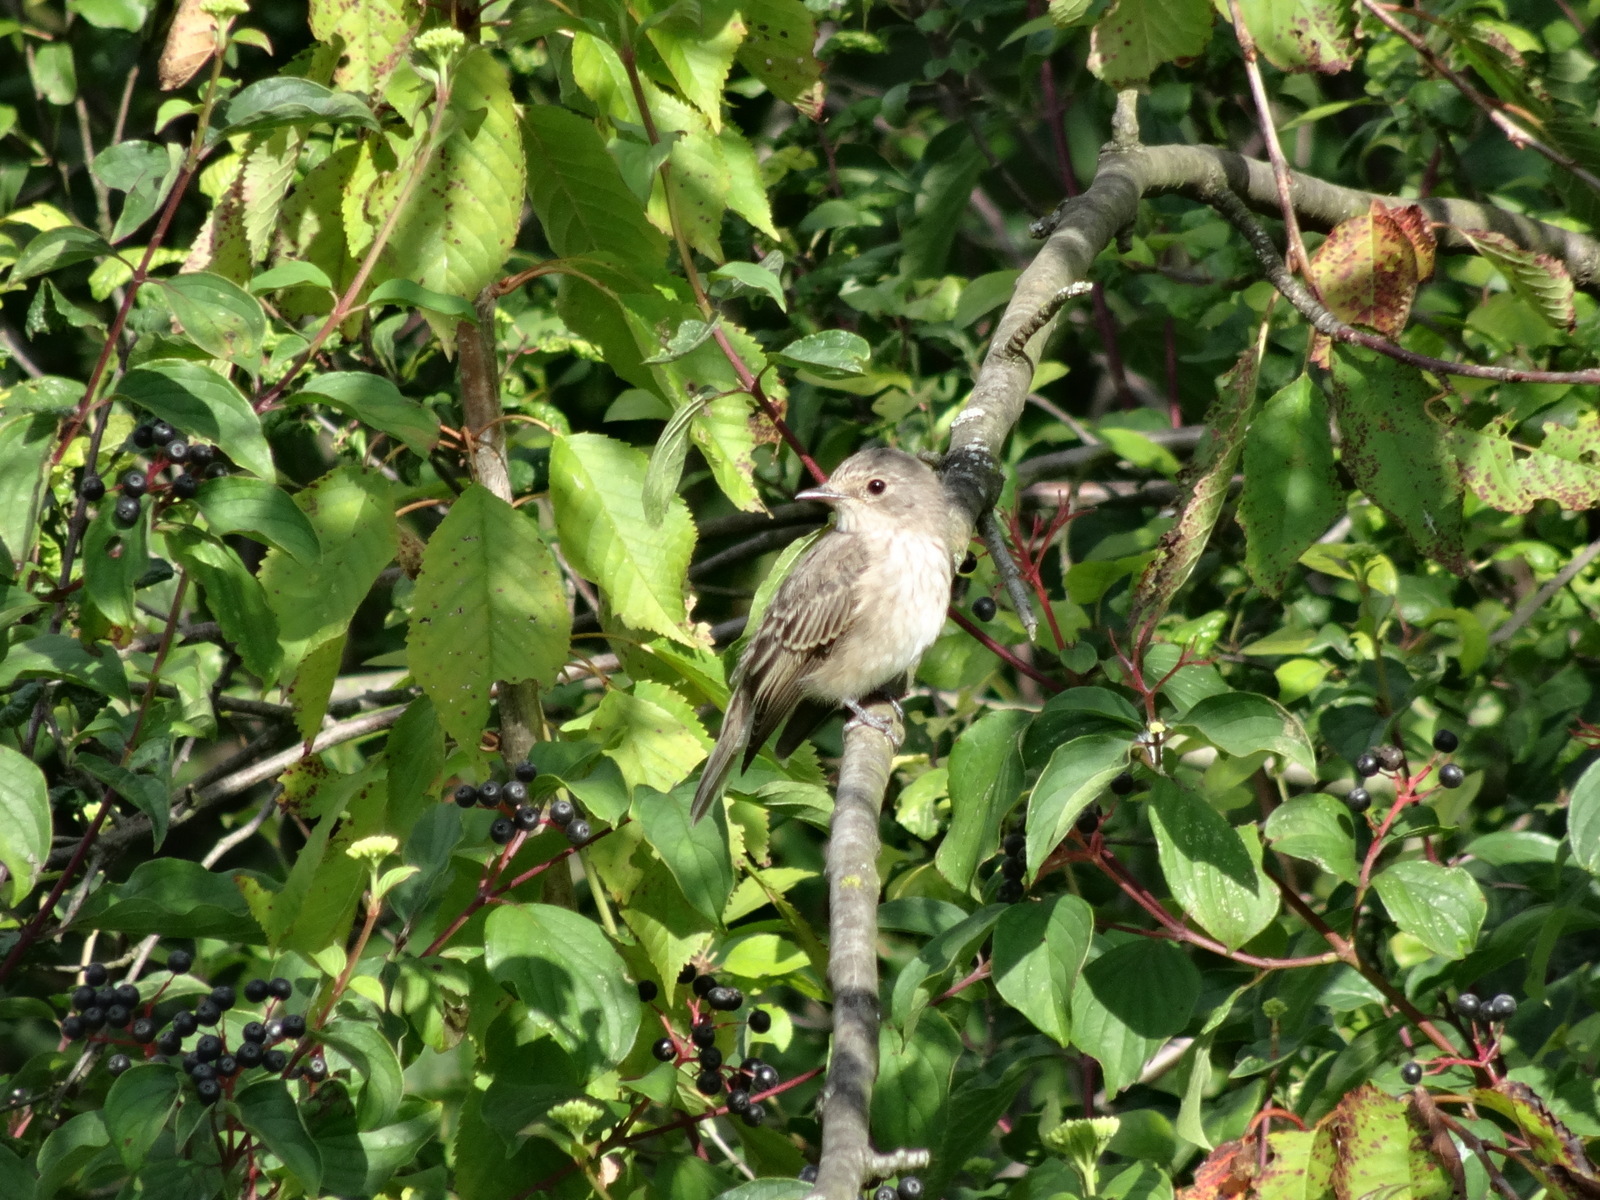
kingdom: Animalia
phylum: Chordata
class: Aves
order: Passeriformes
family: Muscicapidae
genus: Muscicapa
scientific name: Muscicapa striata
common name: Spotted flycatcher
